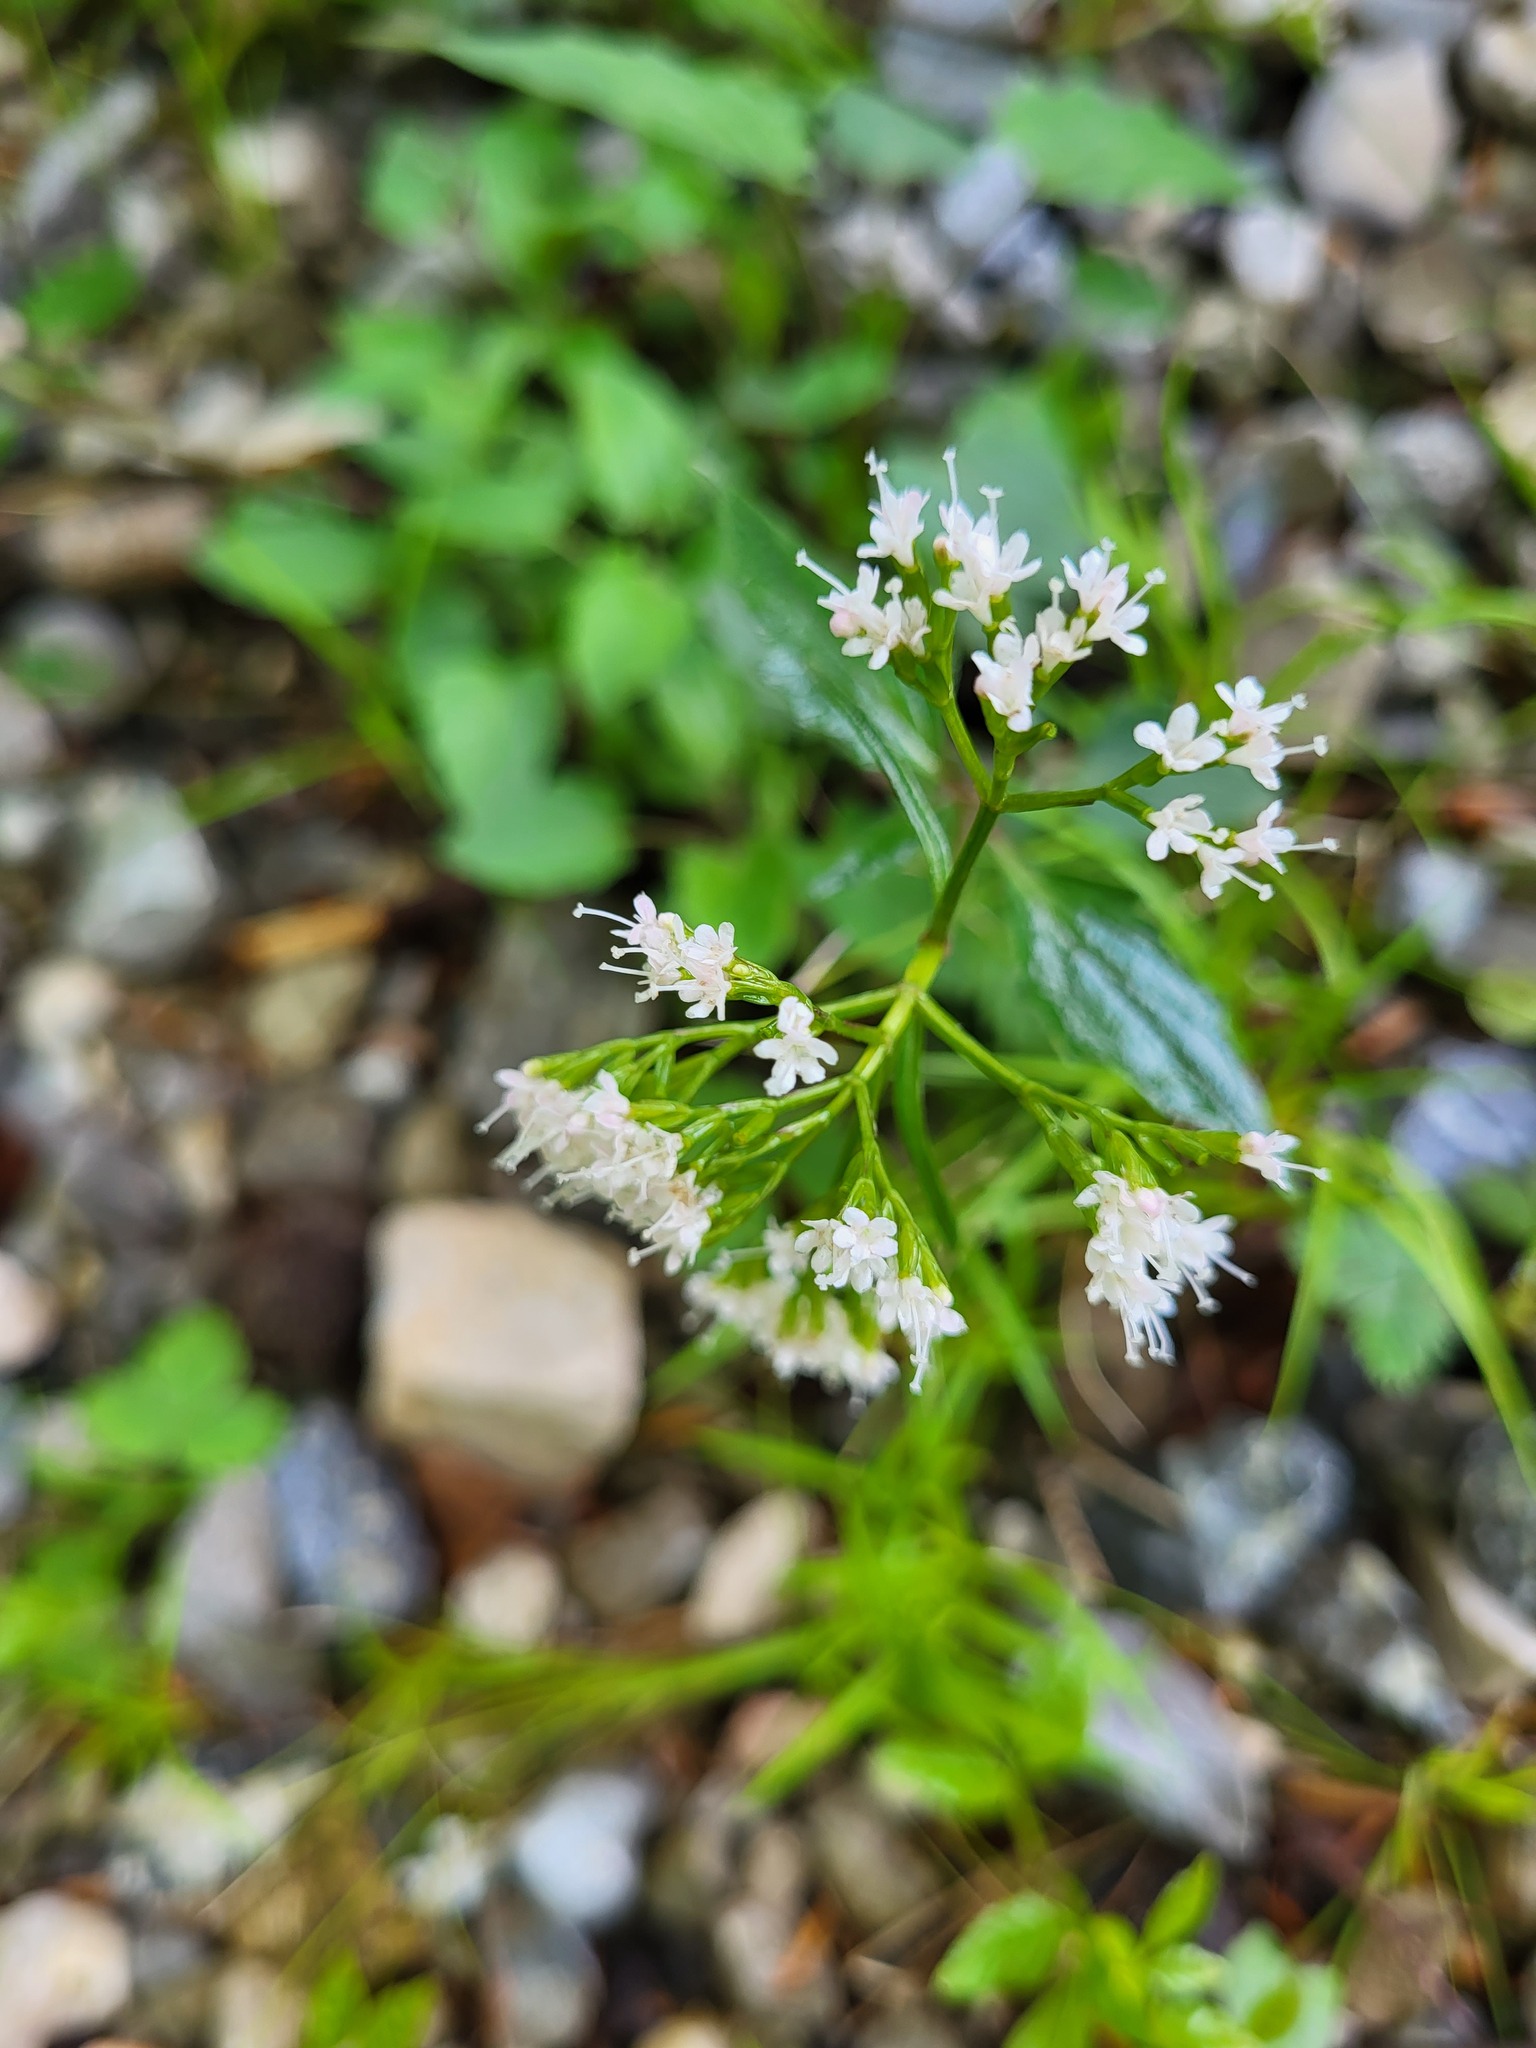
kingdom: Plantae
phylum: Tracheophyta
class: Magnoliopsida
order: Dipsacales
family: Caprifoliaceae
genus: Valeriana
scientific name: Valeriana tripteris
